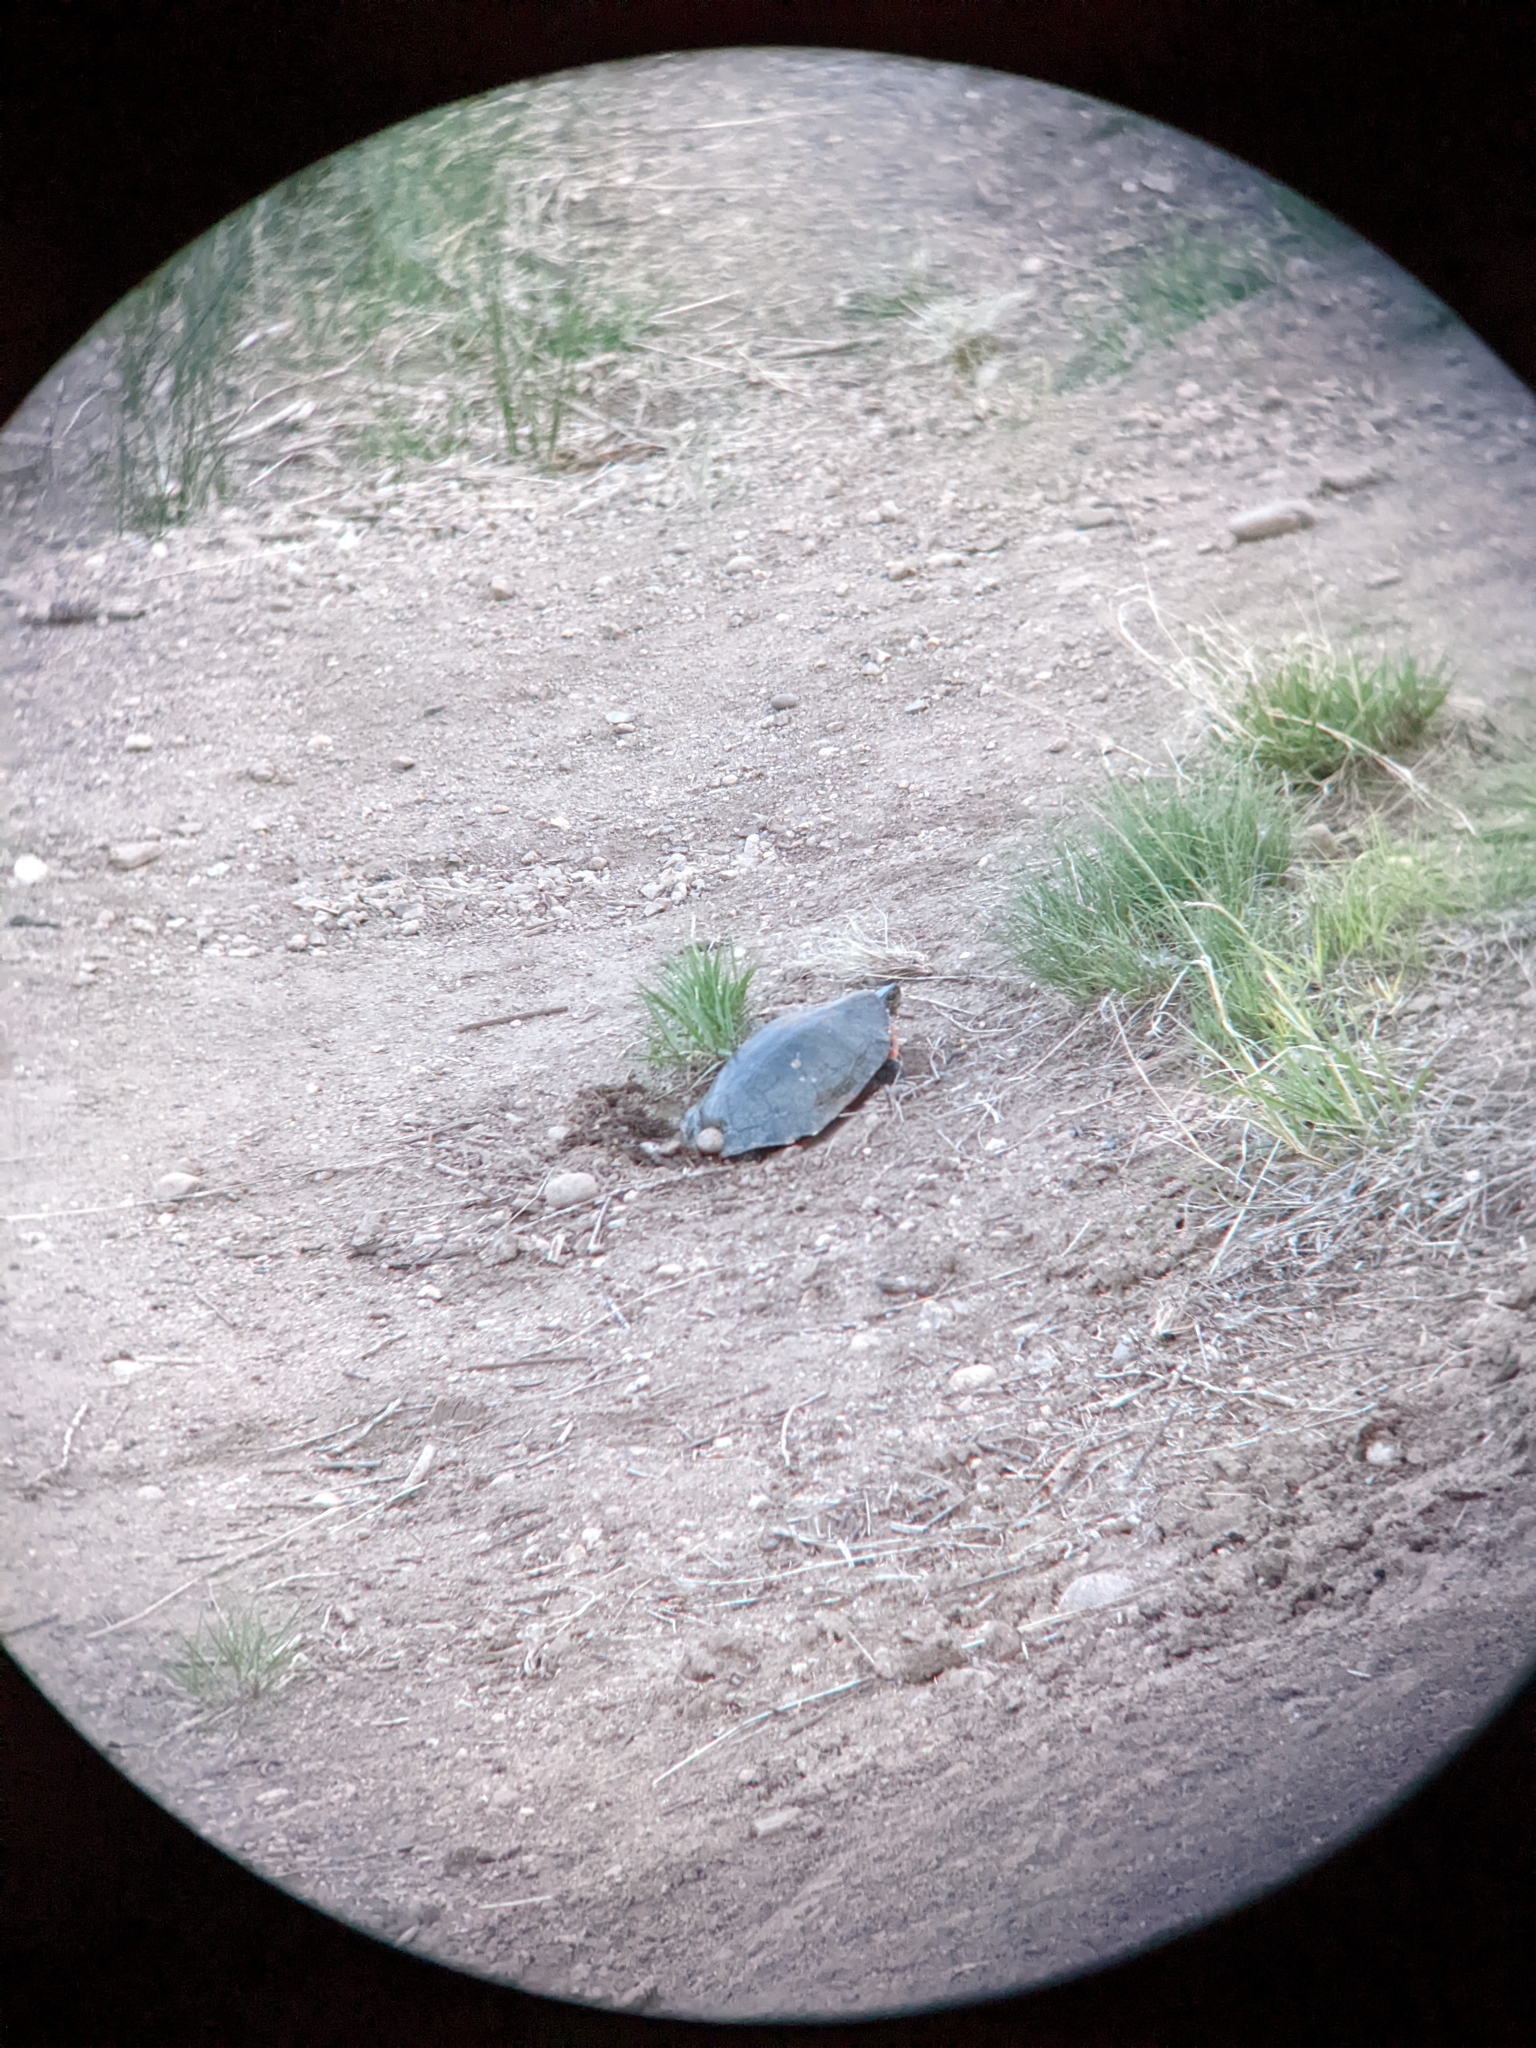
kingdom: Animalia
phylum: Chordata
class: Testudines
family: Emydidae
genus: Chrysemys
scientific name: Chrysemys picta
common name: Painted turtle
